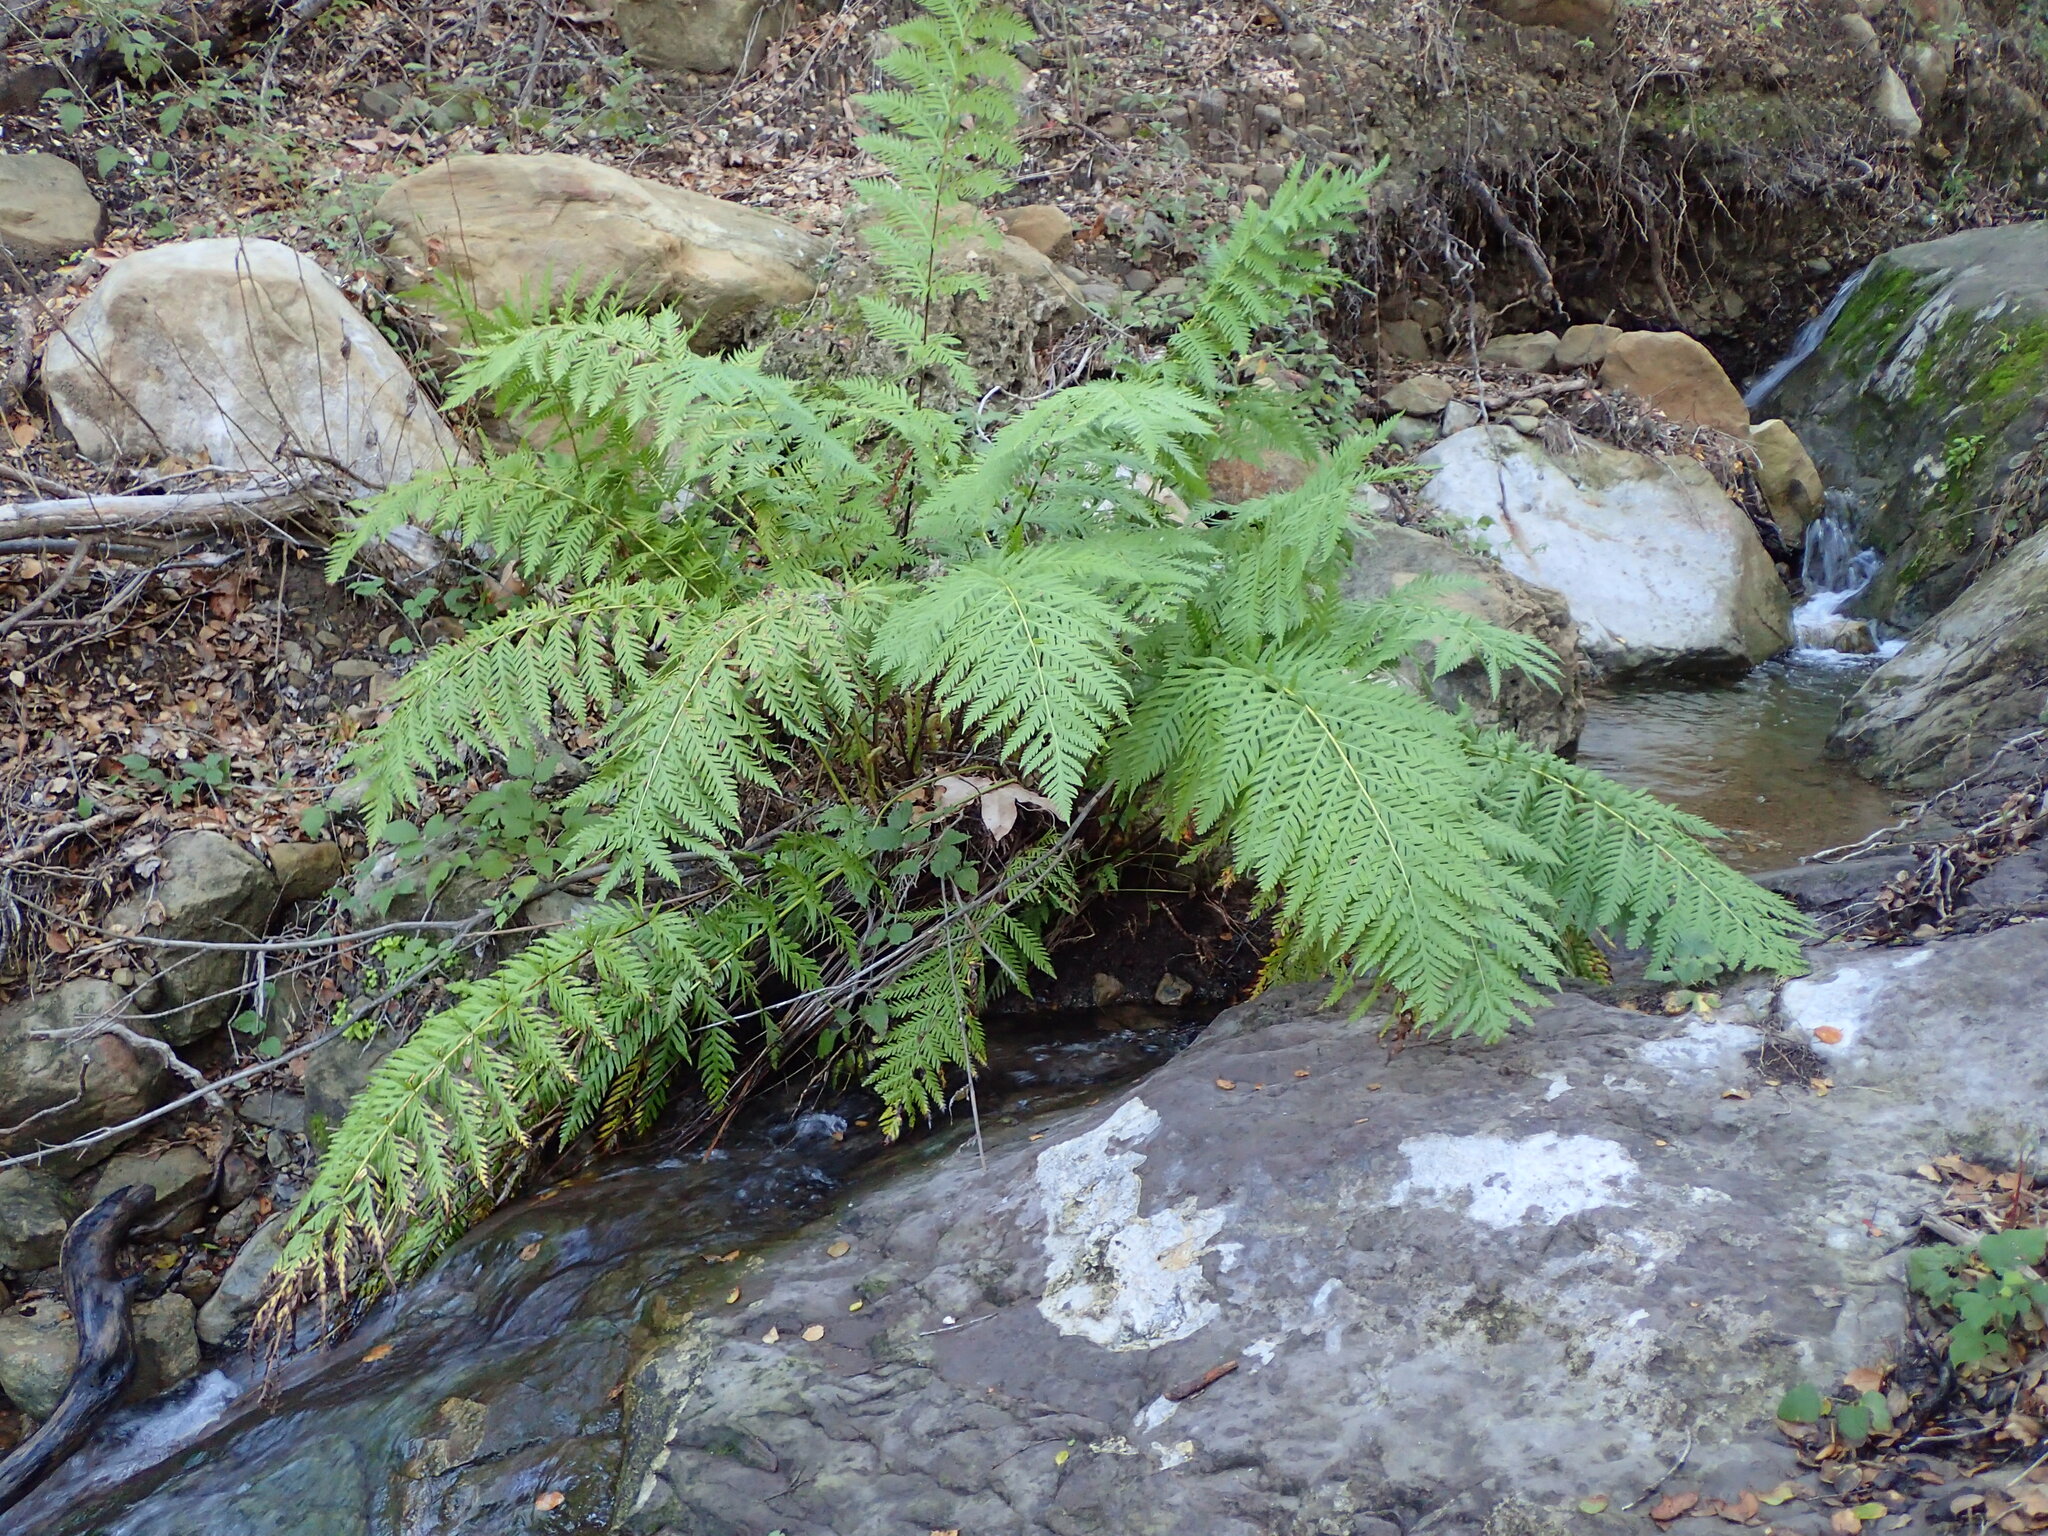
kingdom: Plantae
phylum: Tracheophyta
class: Polypodiopsida
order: Polypodiales
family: Blechnaceae
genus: Woodwardia
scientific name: Woodwardia fimbriata
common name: Giant chain fern
